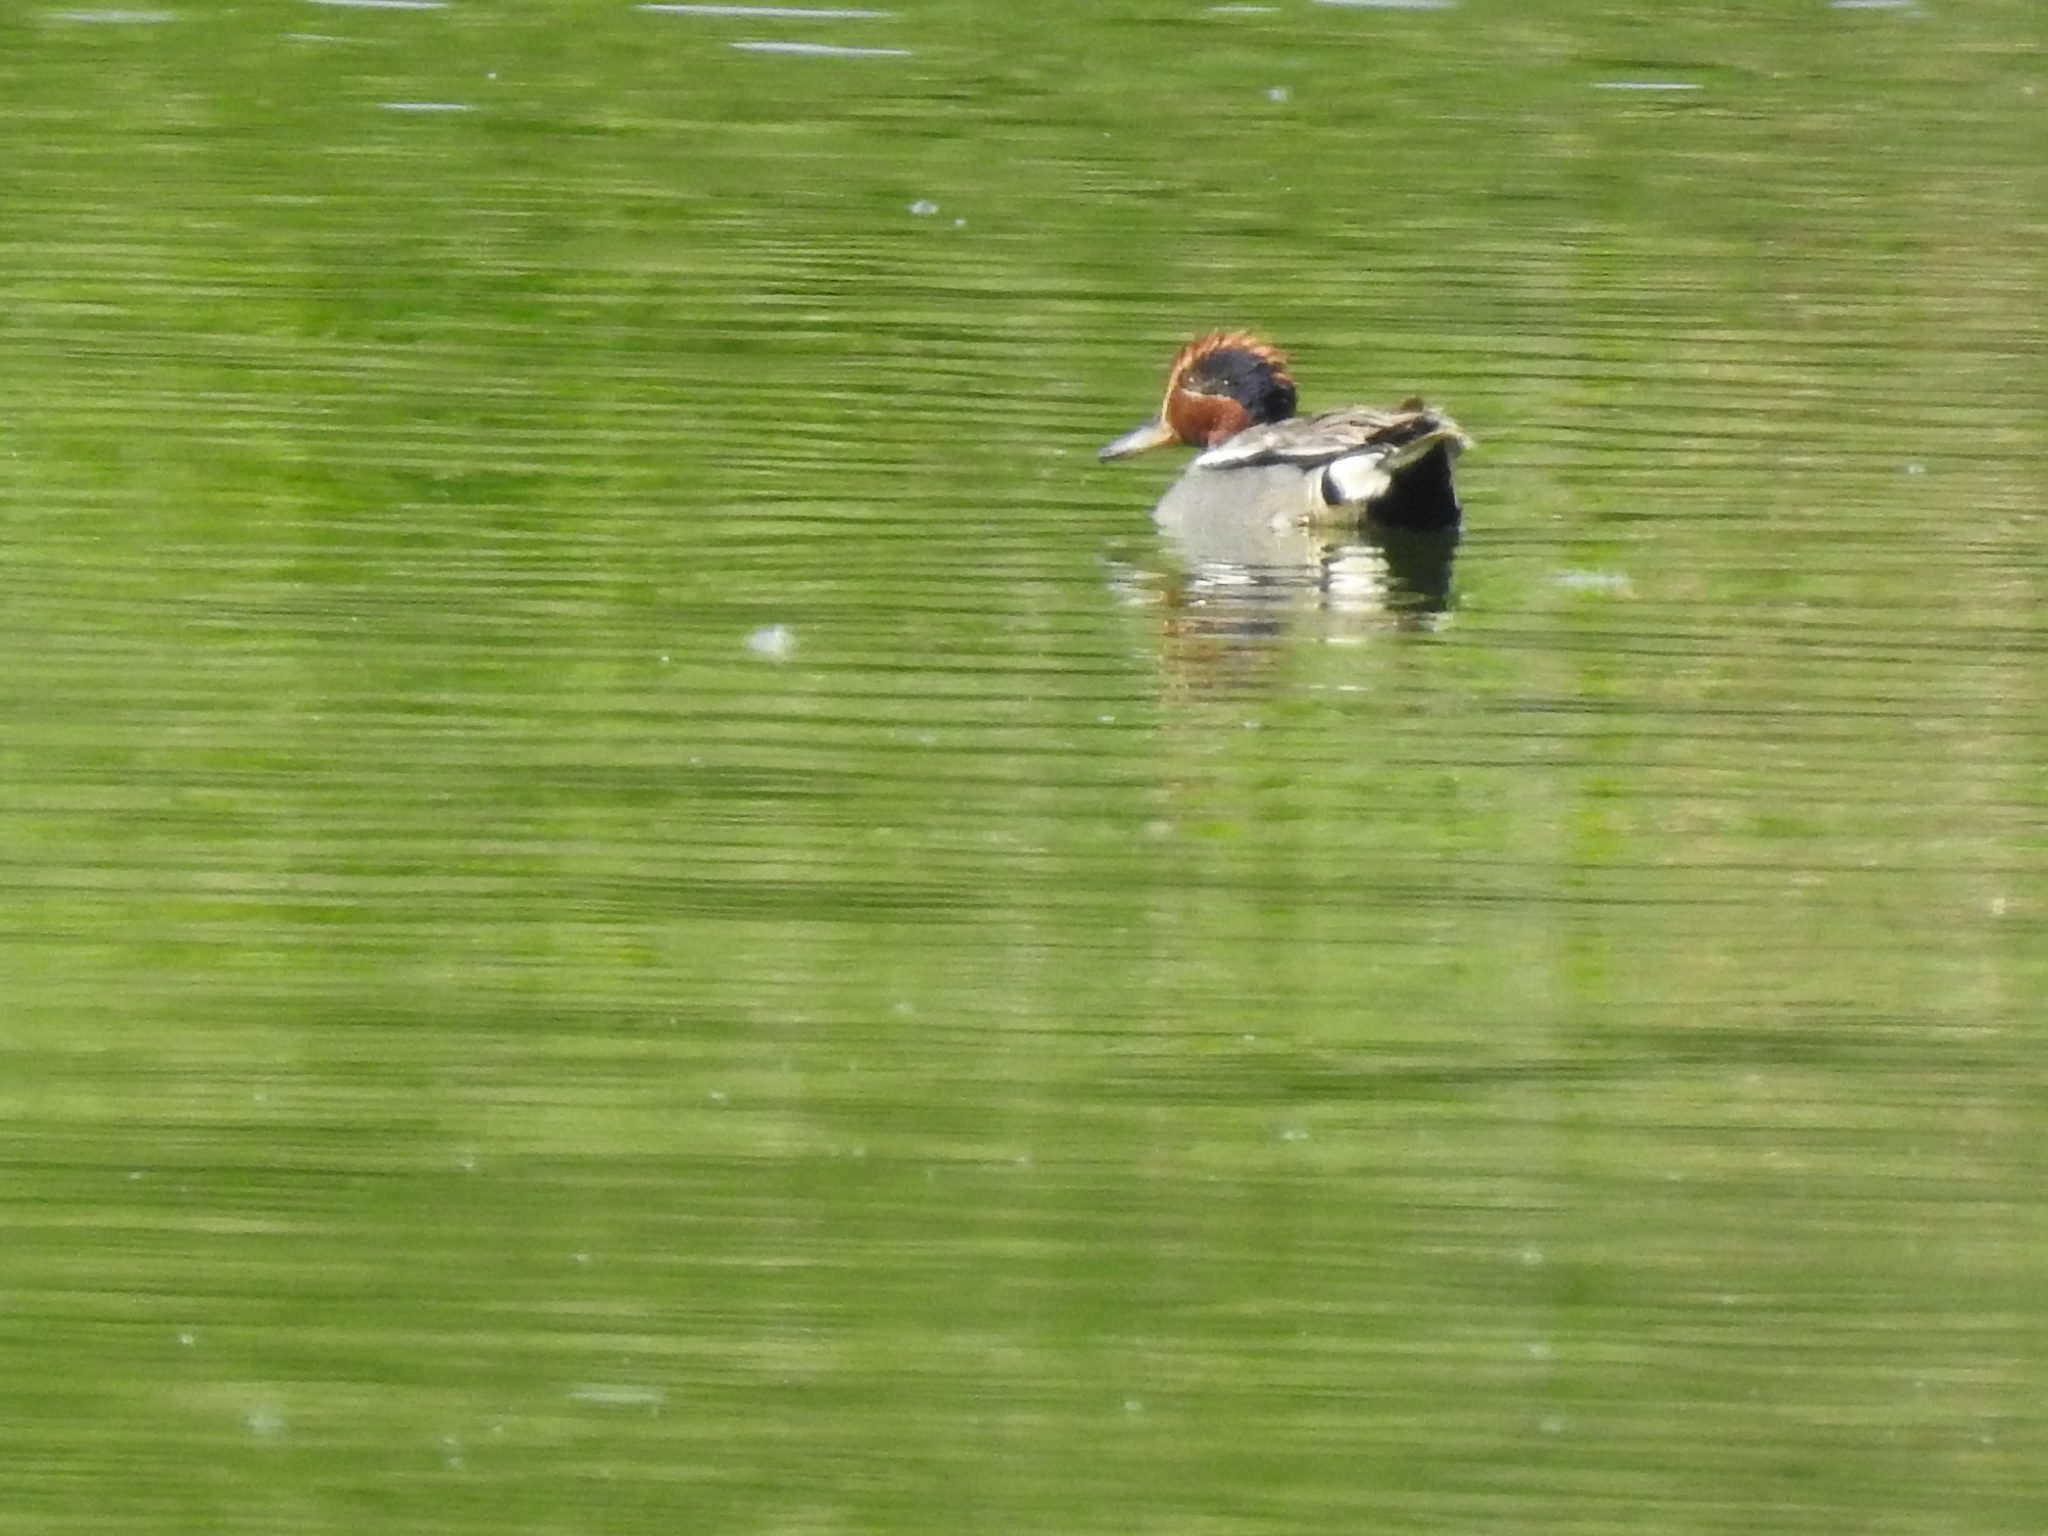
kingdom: Animalia
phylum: Chordata
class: Aves
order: Anseriformes
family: Anatidae
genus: Anas
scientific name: Anas crecca
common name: Eurasian teal
